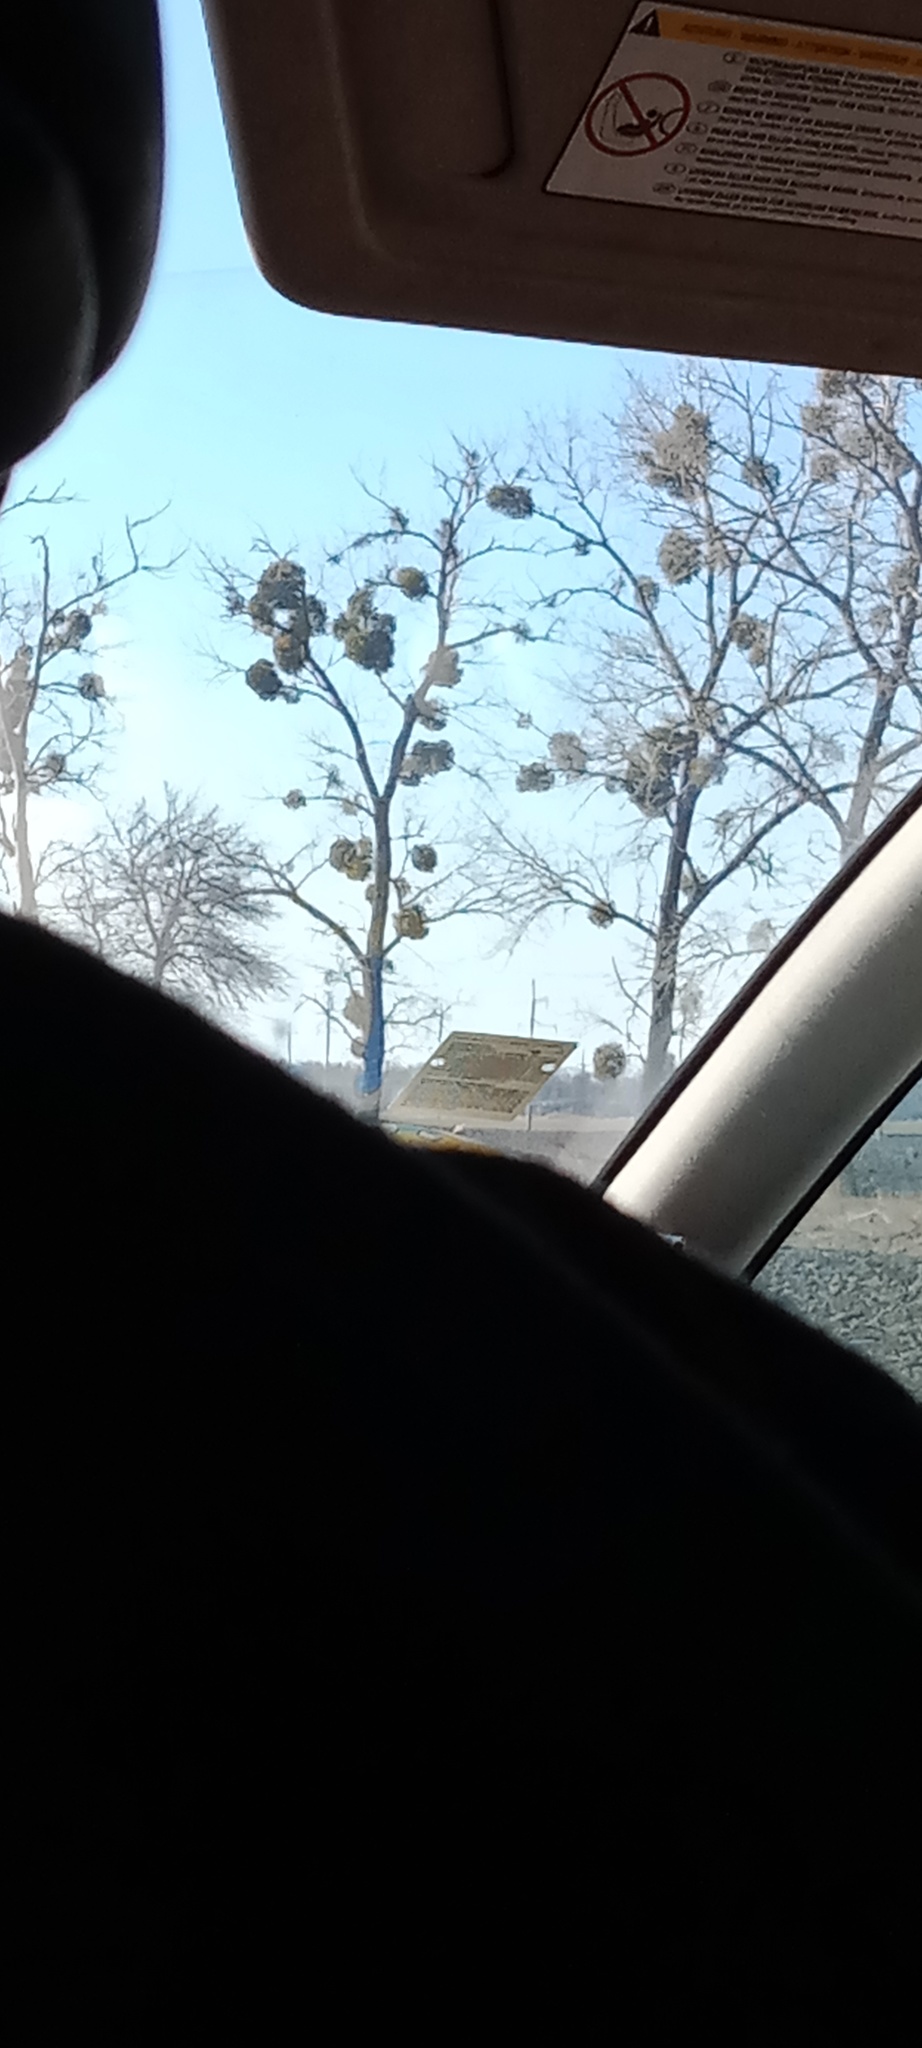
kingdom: Plantae
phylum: Tracheophyta
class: Magnoliopsida
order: Santalales
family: Viscaceae
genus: Viscum
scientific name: Viscum album
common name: Mistletoe
